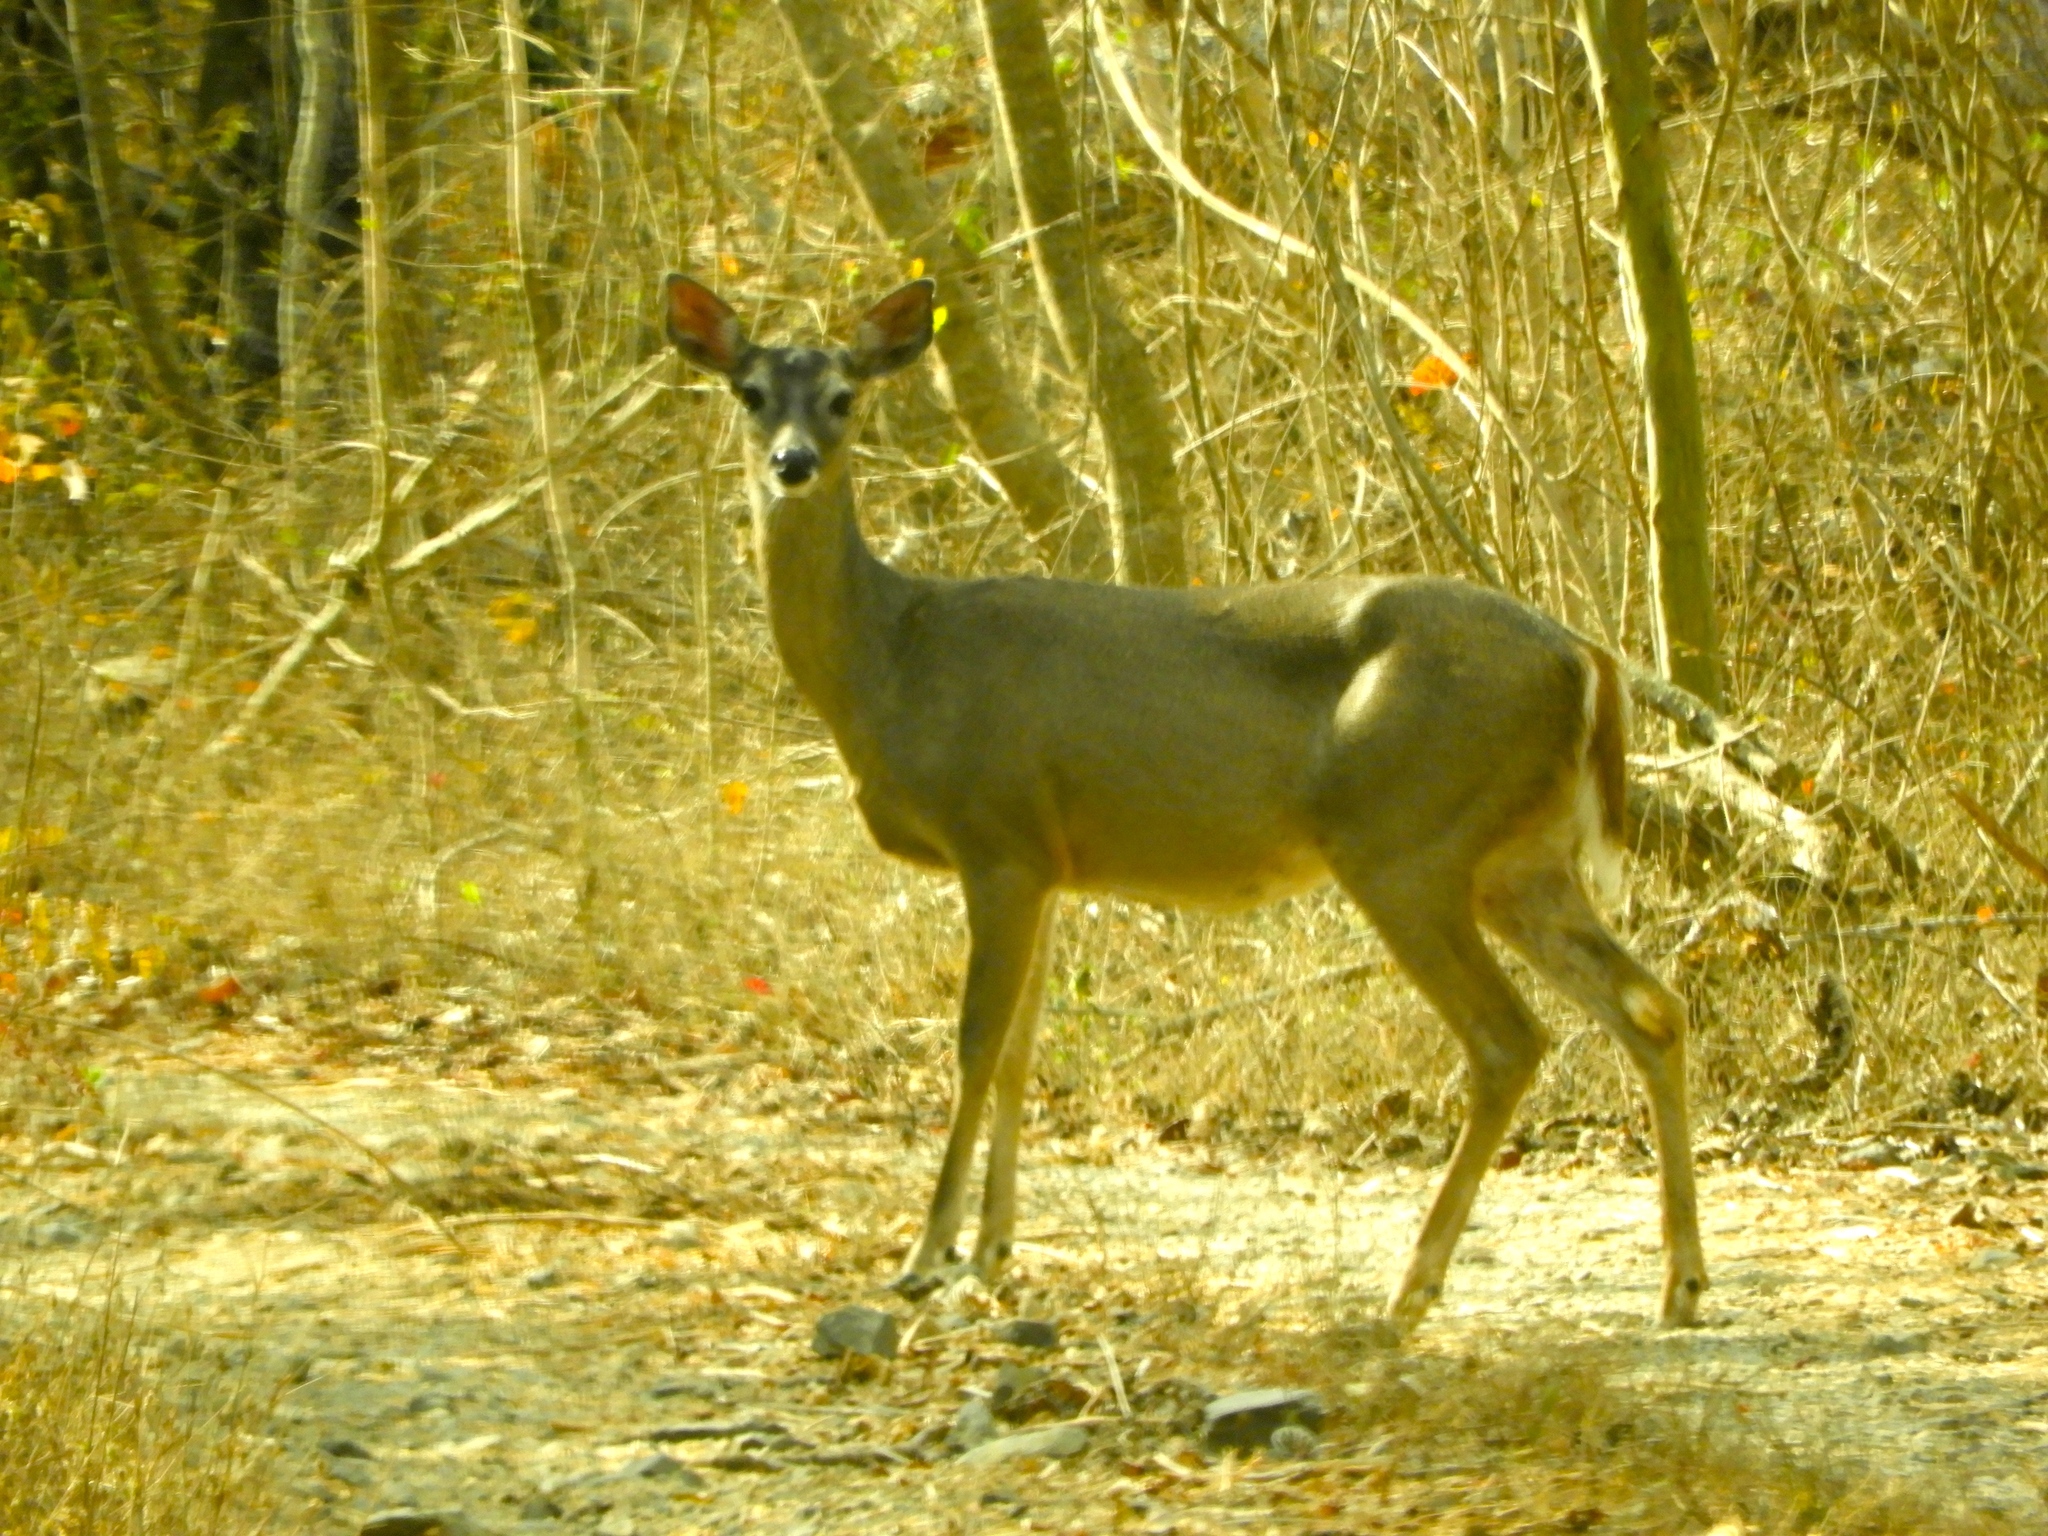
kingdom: Animalia
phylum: Chordata
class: Mammalia
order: Artiodactyla
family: Cervidae
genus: Odocoileus
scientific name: Odocoileus virginianus
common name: White-tailed deer
